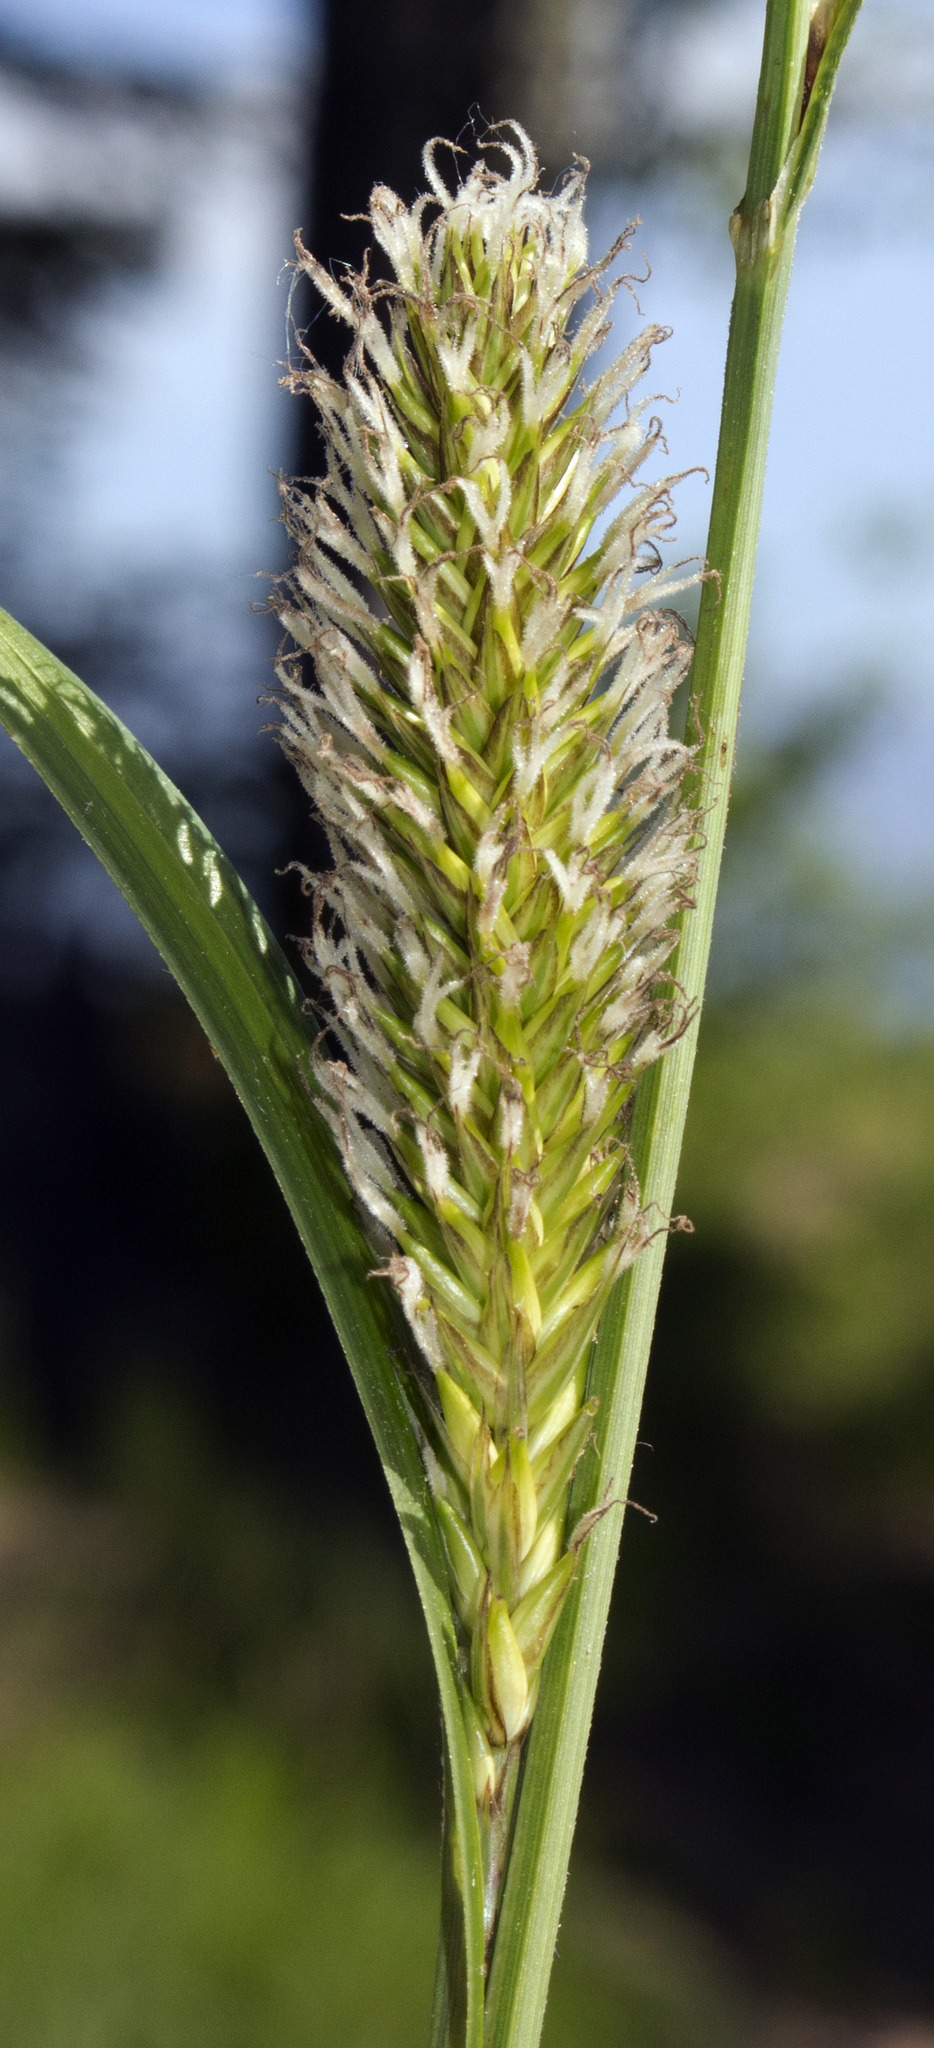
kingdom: Plantae
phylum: Tracheophyta
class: Liliopsida
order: Poales
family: Cyperaceae
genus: Carex
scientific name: Carex lacustris
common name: Common lake sedge
